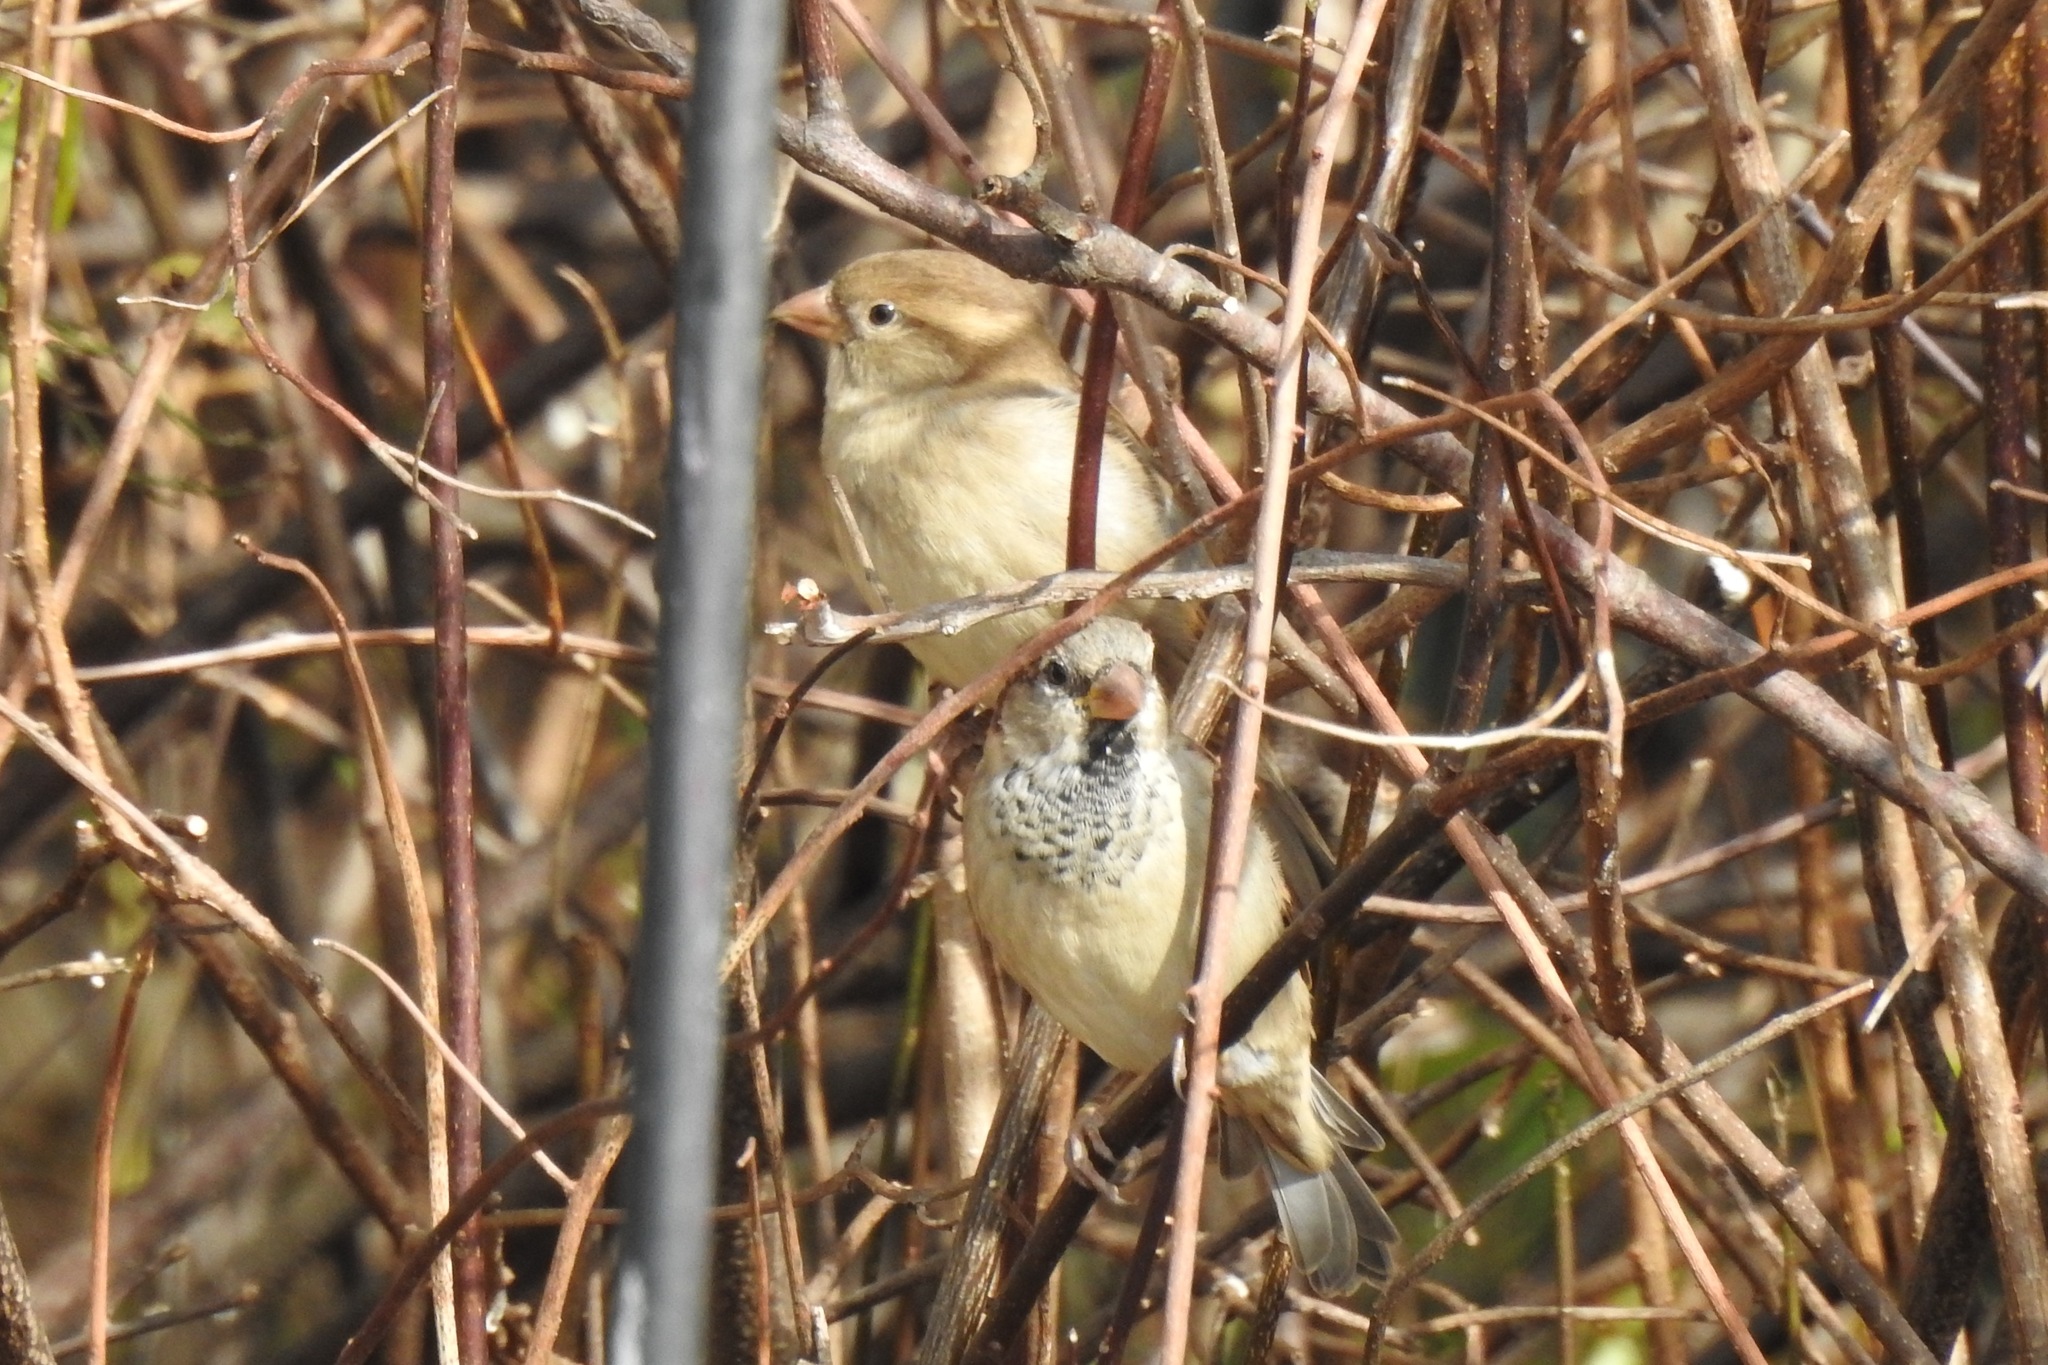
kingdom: Animalia
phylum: Chordata
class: Aves
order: Passeriformes
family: Passeridae
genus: Passer
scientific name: Passer domesticus
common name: House sparrow
